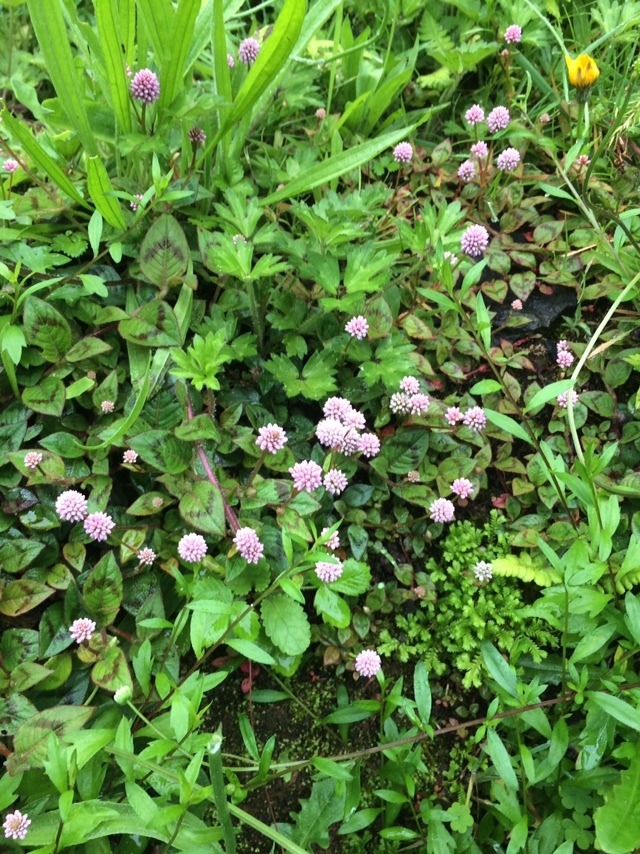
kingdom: Plantae
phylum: Tracheophyta
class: Magnoliopsida
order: Caryophyllales
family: Polygonaceae
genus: Persicaria
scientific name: Persicaria capitata
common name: Pinkhead smartweed
